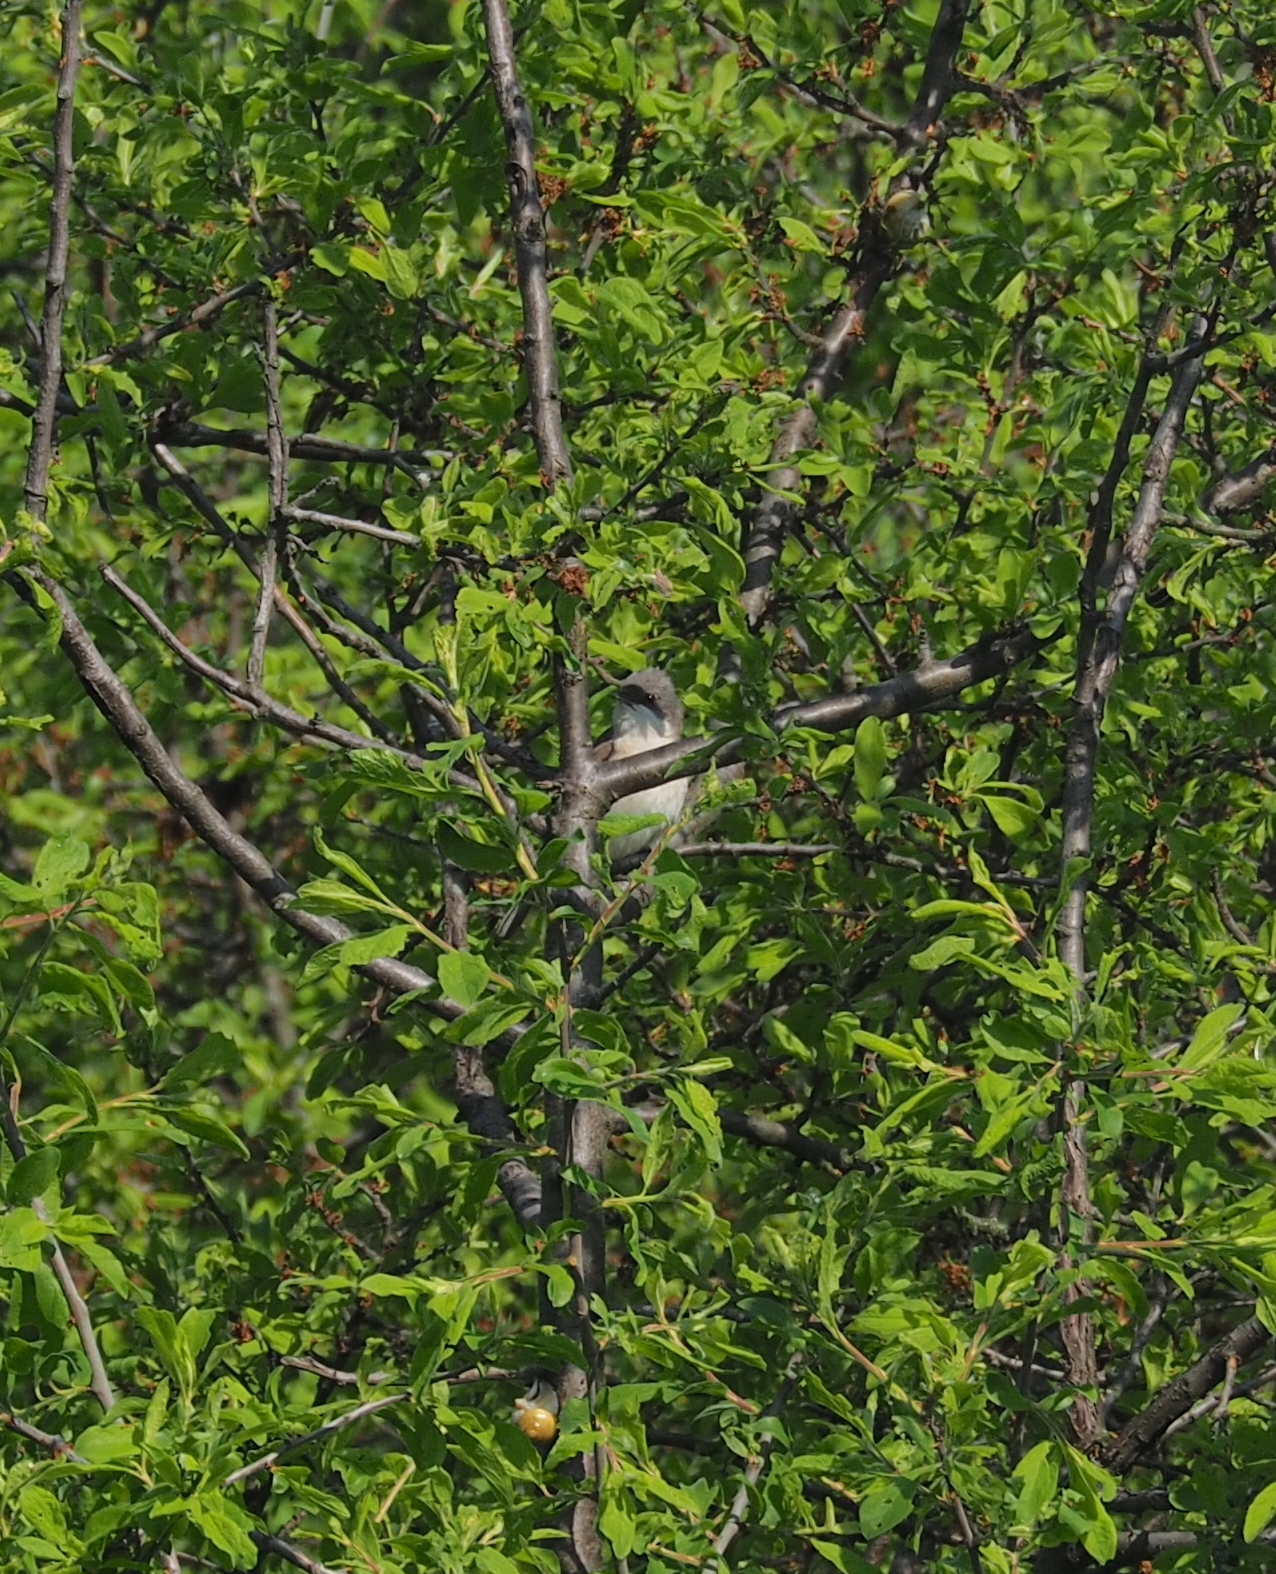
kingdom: Animalia
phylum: Chordata
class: Aves
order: Passeriformes
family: Sylviidae
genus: Sylvia
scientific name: Sylvia curruca
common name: Lesser whitethroat
